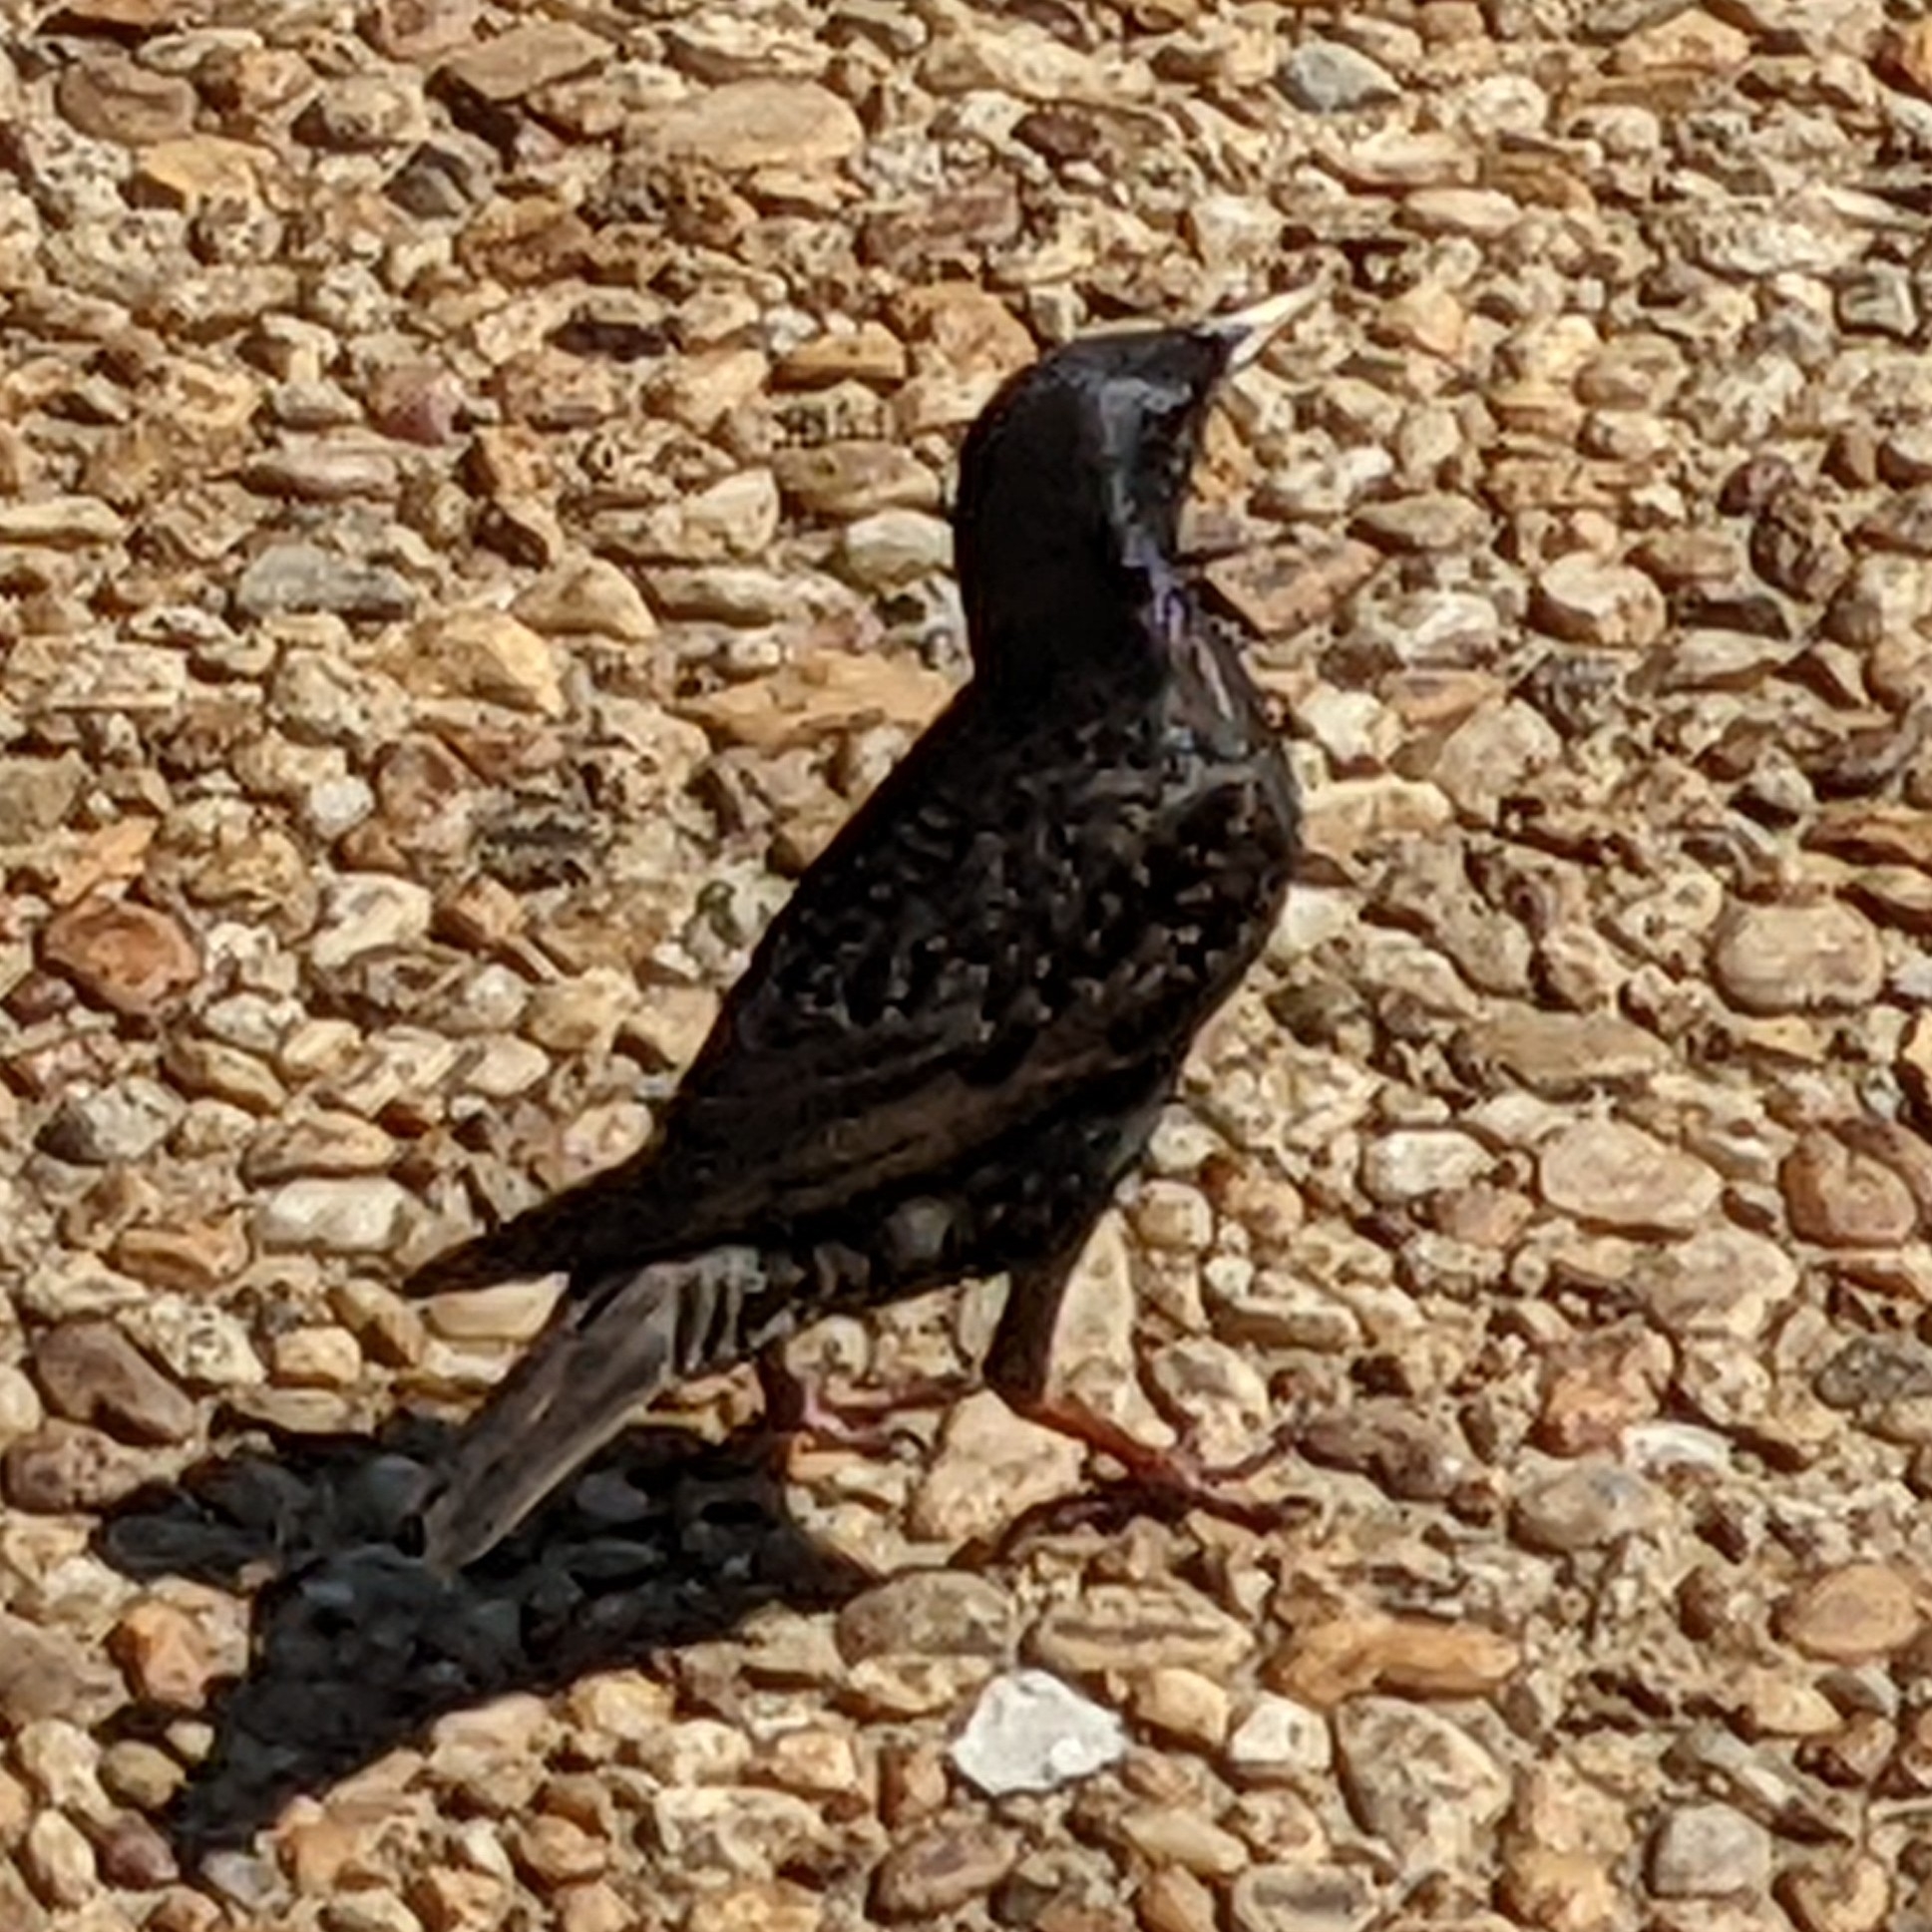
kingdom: Animalia
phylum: Chordata
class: Aves
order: Passeriformes
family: Sturnidae
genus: Sturnus
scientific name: Sturnus vulgaris
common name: Common starling
